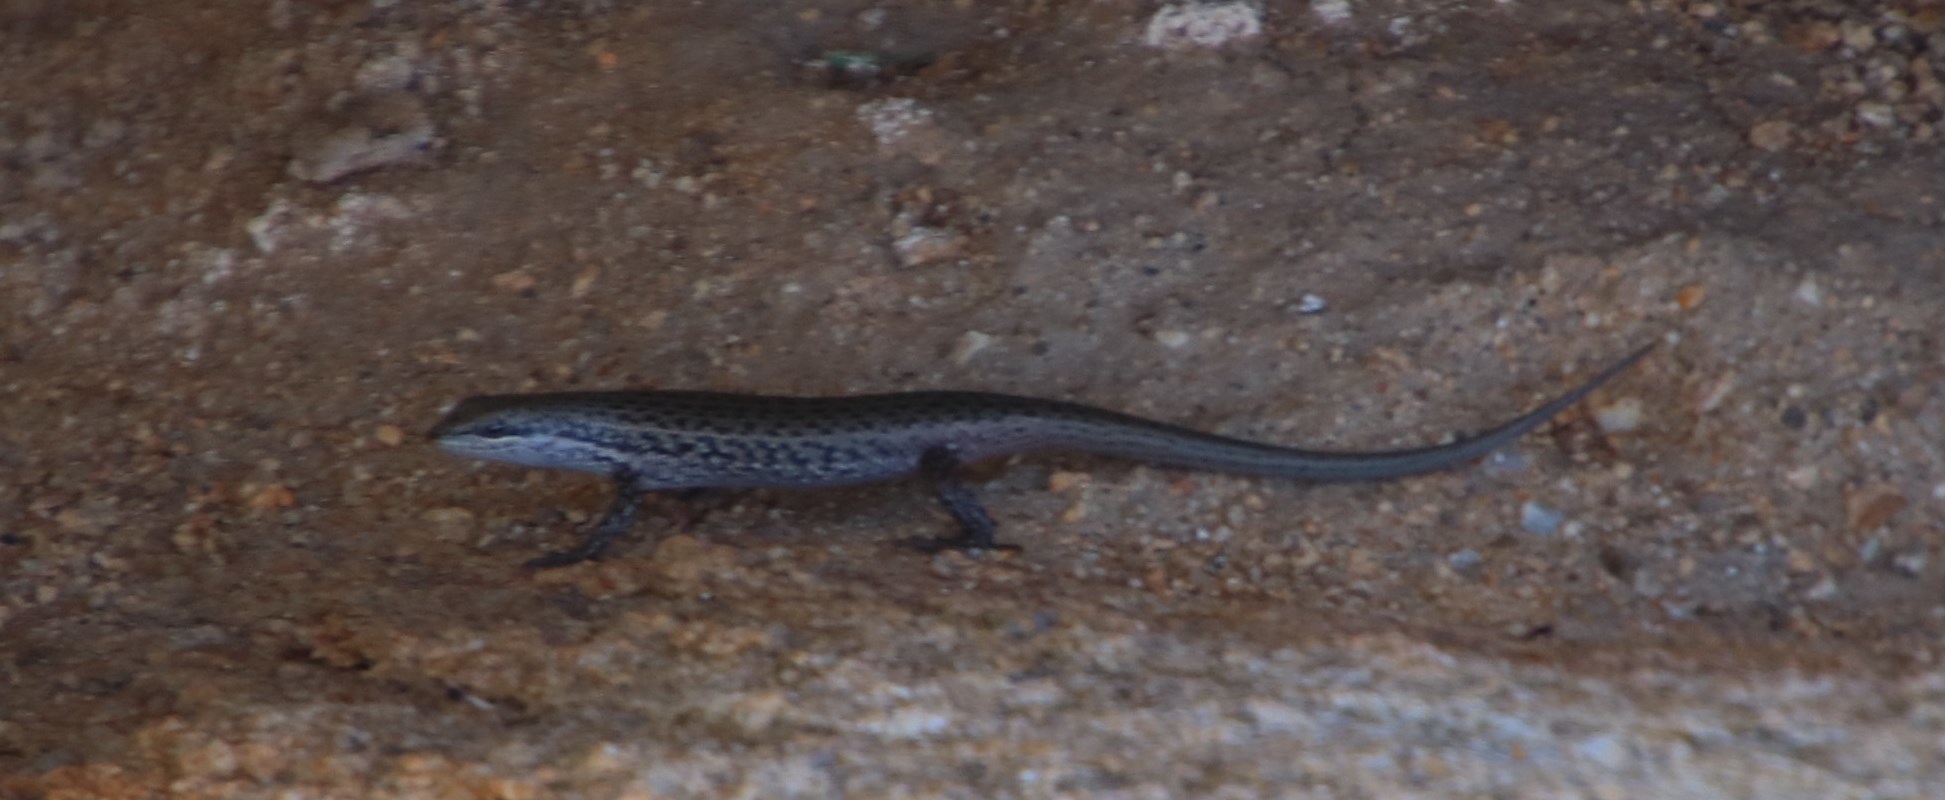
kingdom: Animalia
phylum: Chordata
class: Squamata
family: Scincidae
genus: Trachylepis
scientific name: Trachylepis variegata
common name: Variegated skink
